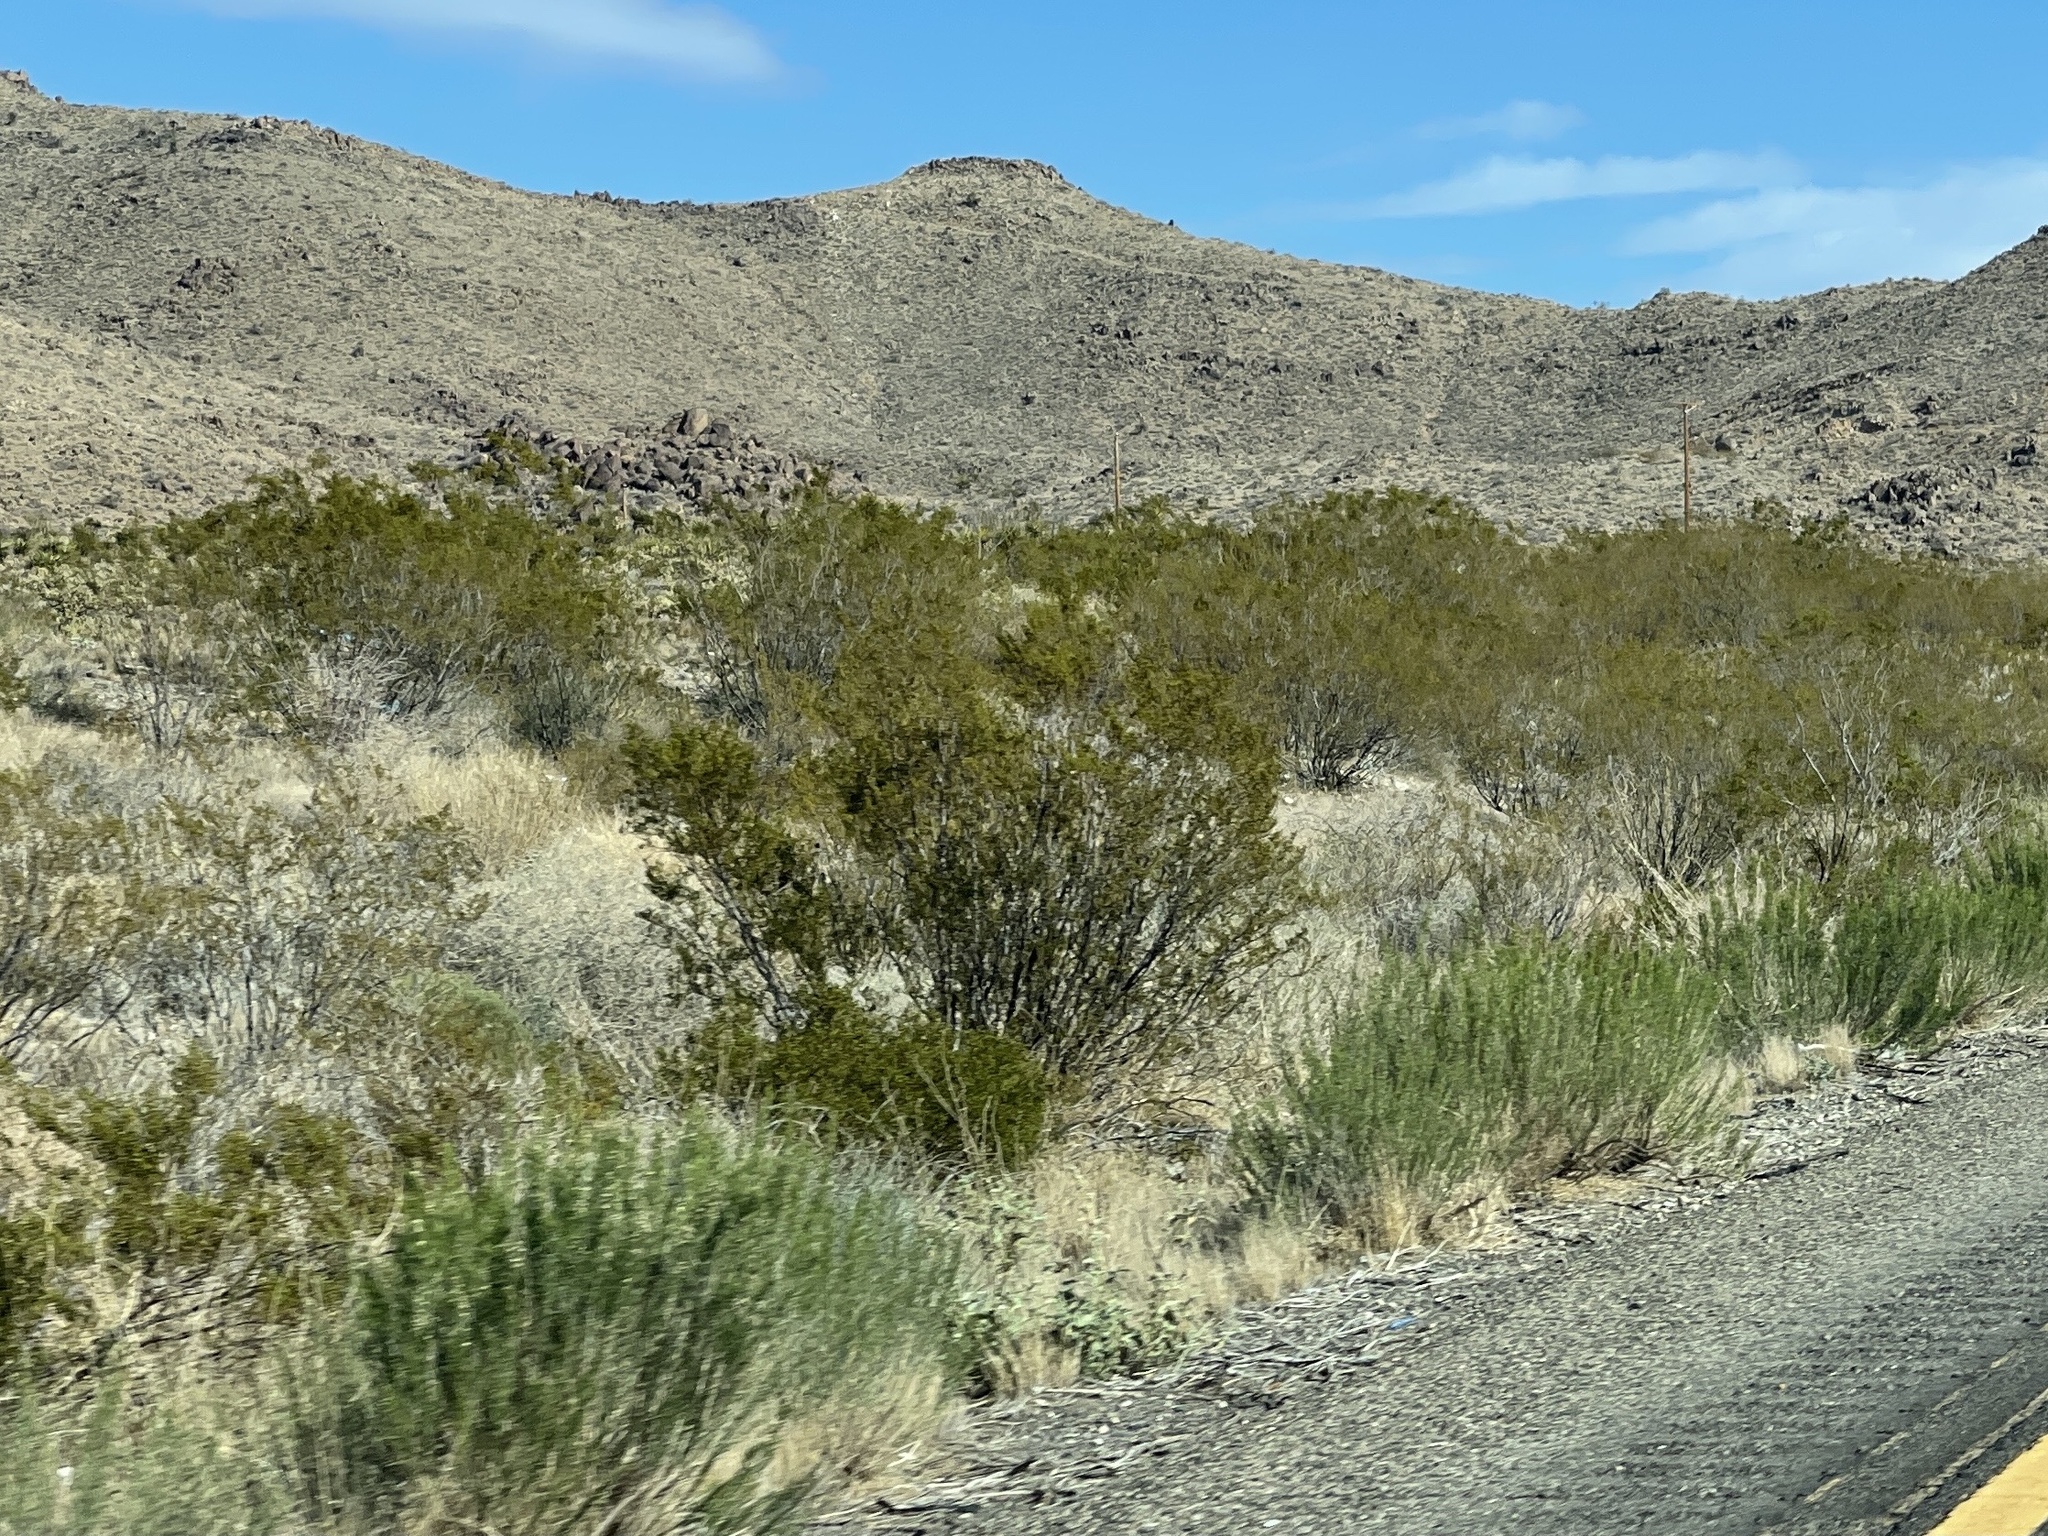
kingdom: Plantae
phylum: Tracheophyta
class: Magnoliopsida
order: Zygophyllales
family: Zygophyllaceae
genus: Larrea
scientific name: Larrea tridentata
